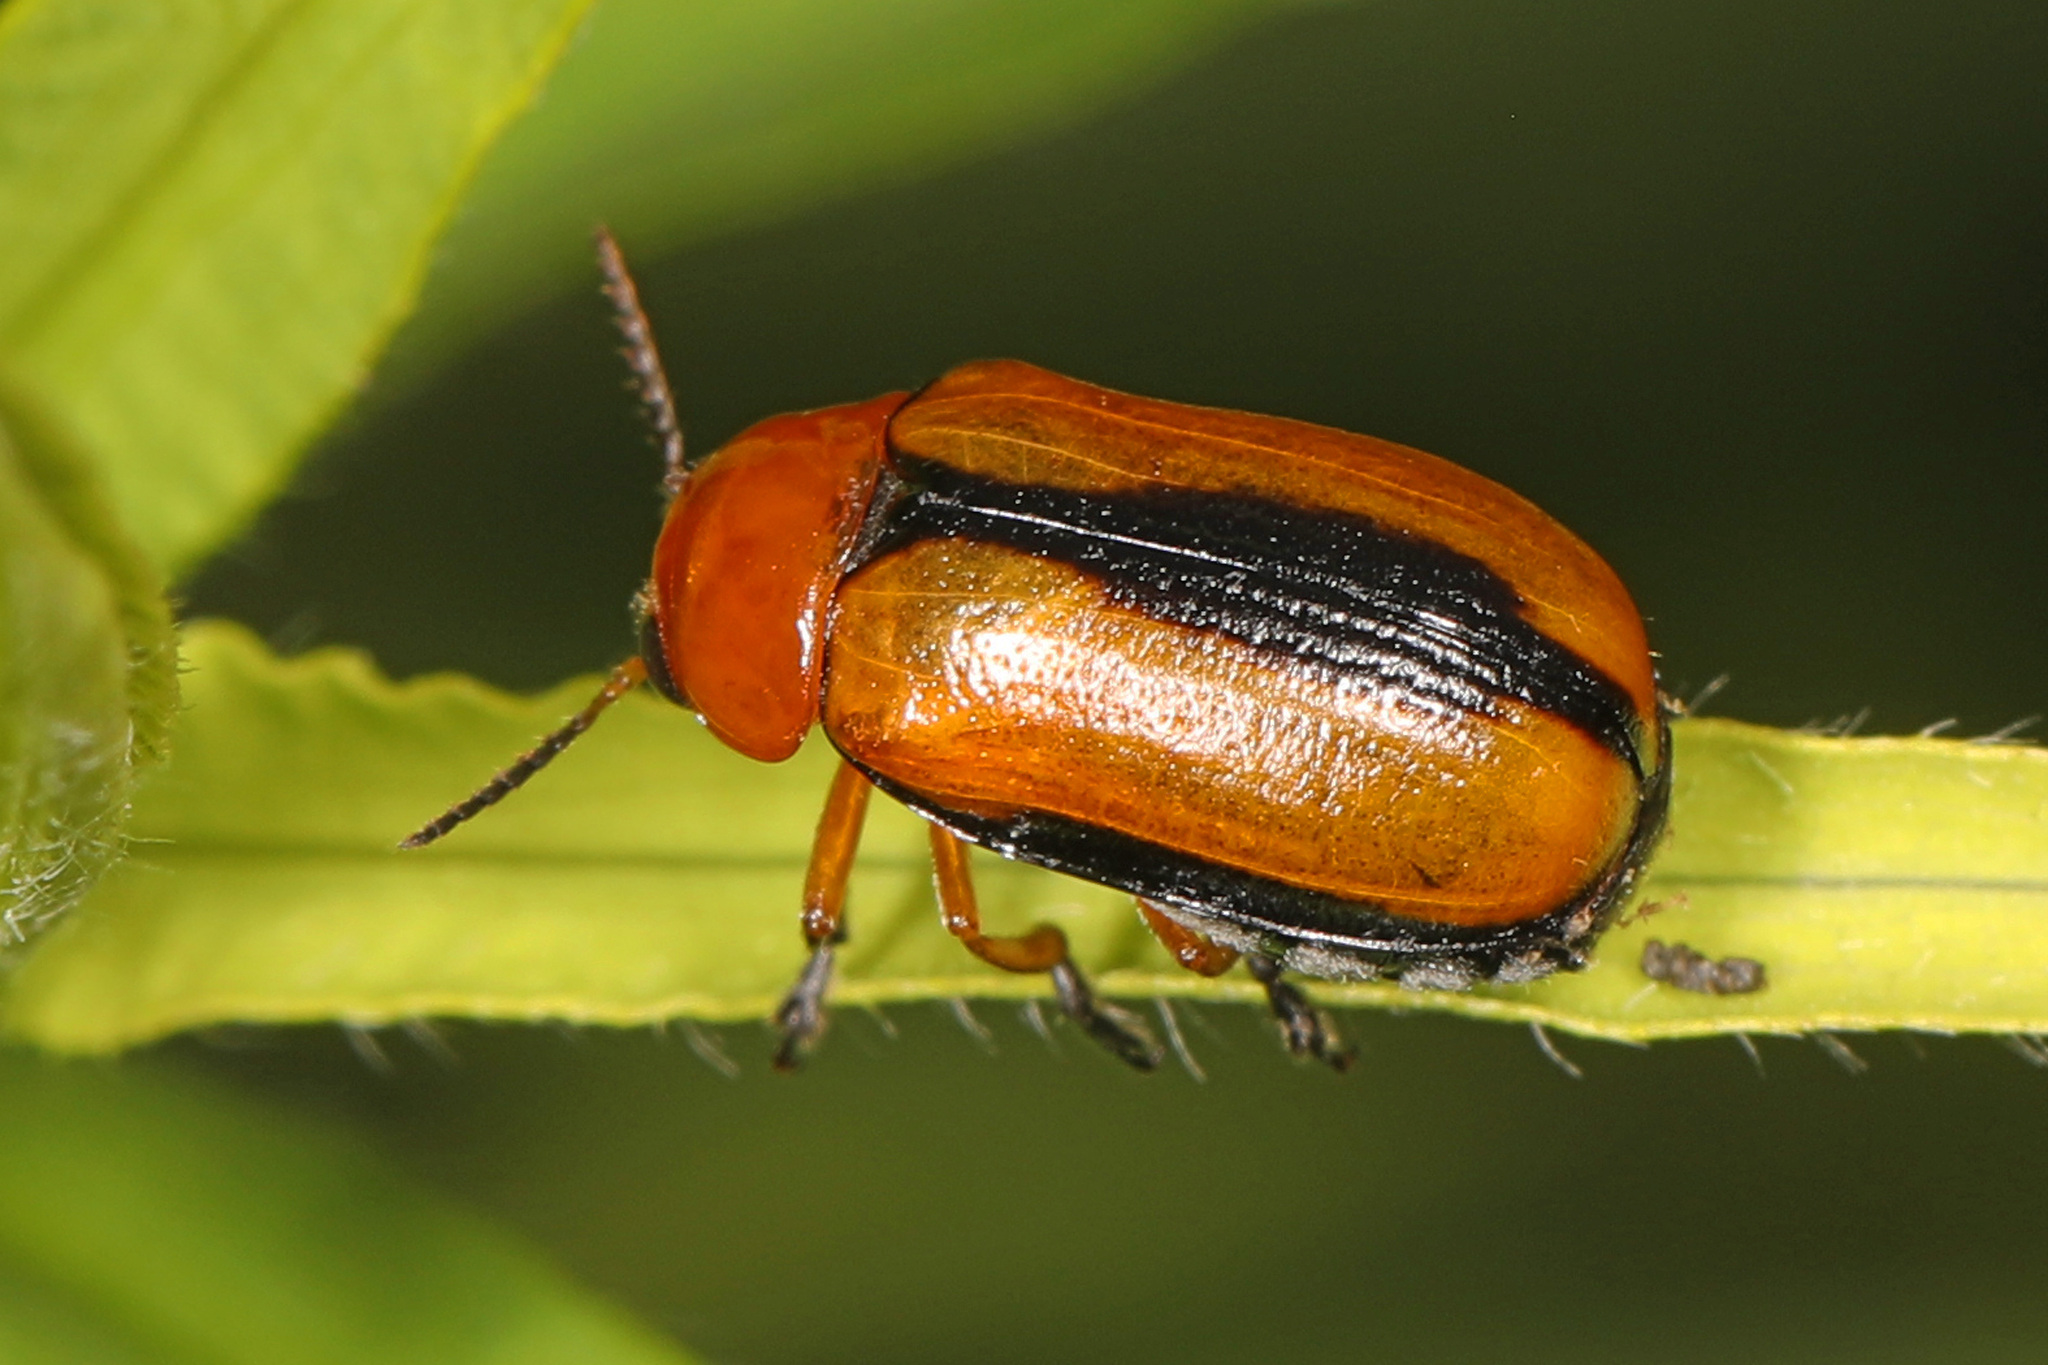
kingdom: Animalia
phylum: Arthropoda
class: Insecta
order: Coleoptera
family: Chrysomelidae
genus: Anomoea
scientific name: Anomoea laticlavia
